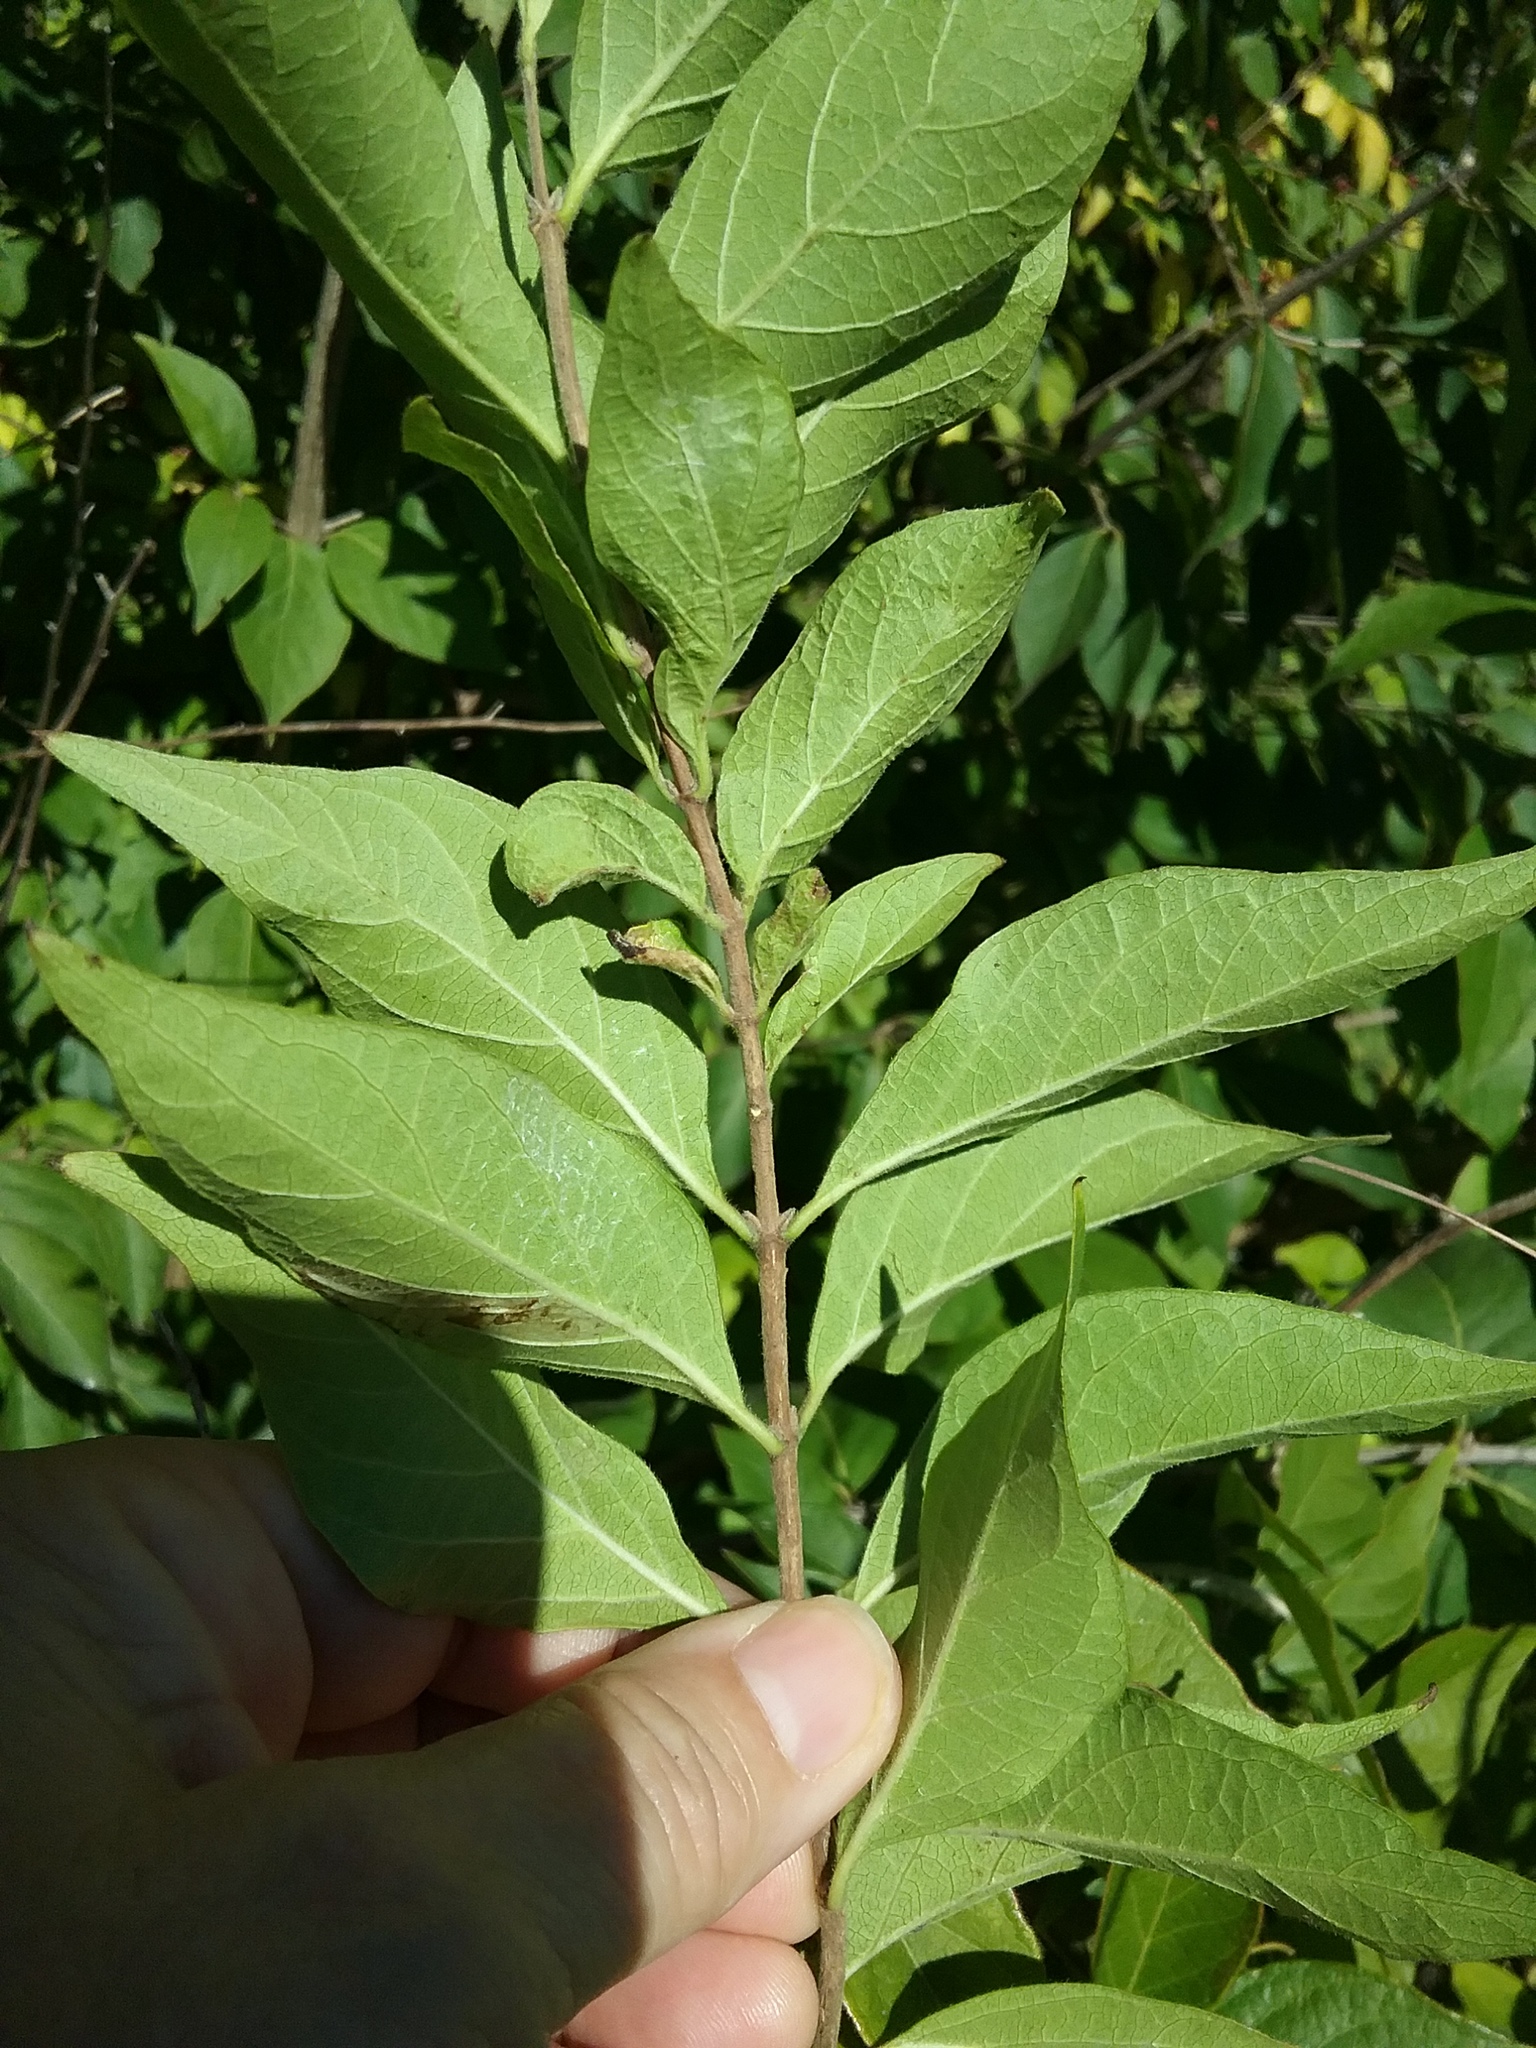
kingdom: Plantae
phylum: Tracheophyta
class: Magnoliopsida
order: Dipsacales
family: Caprifoliaceae
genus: Lonicera
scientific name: Lonicera maackii
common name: Amur honeysuckle
